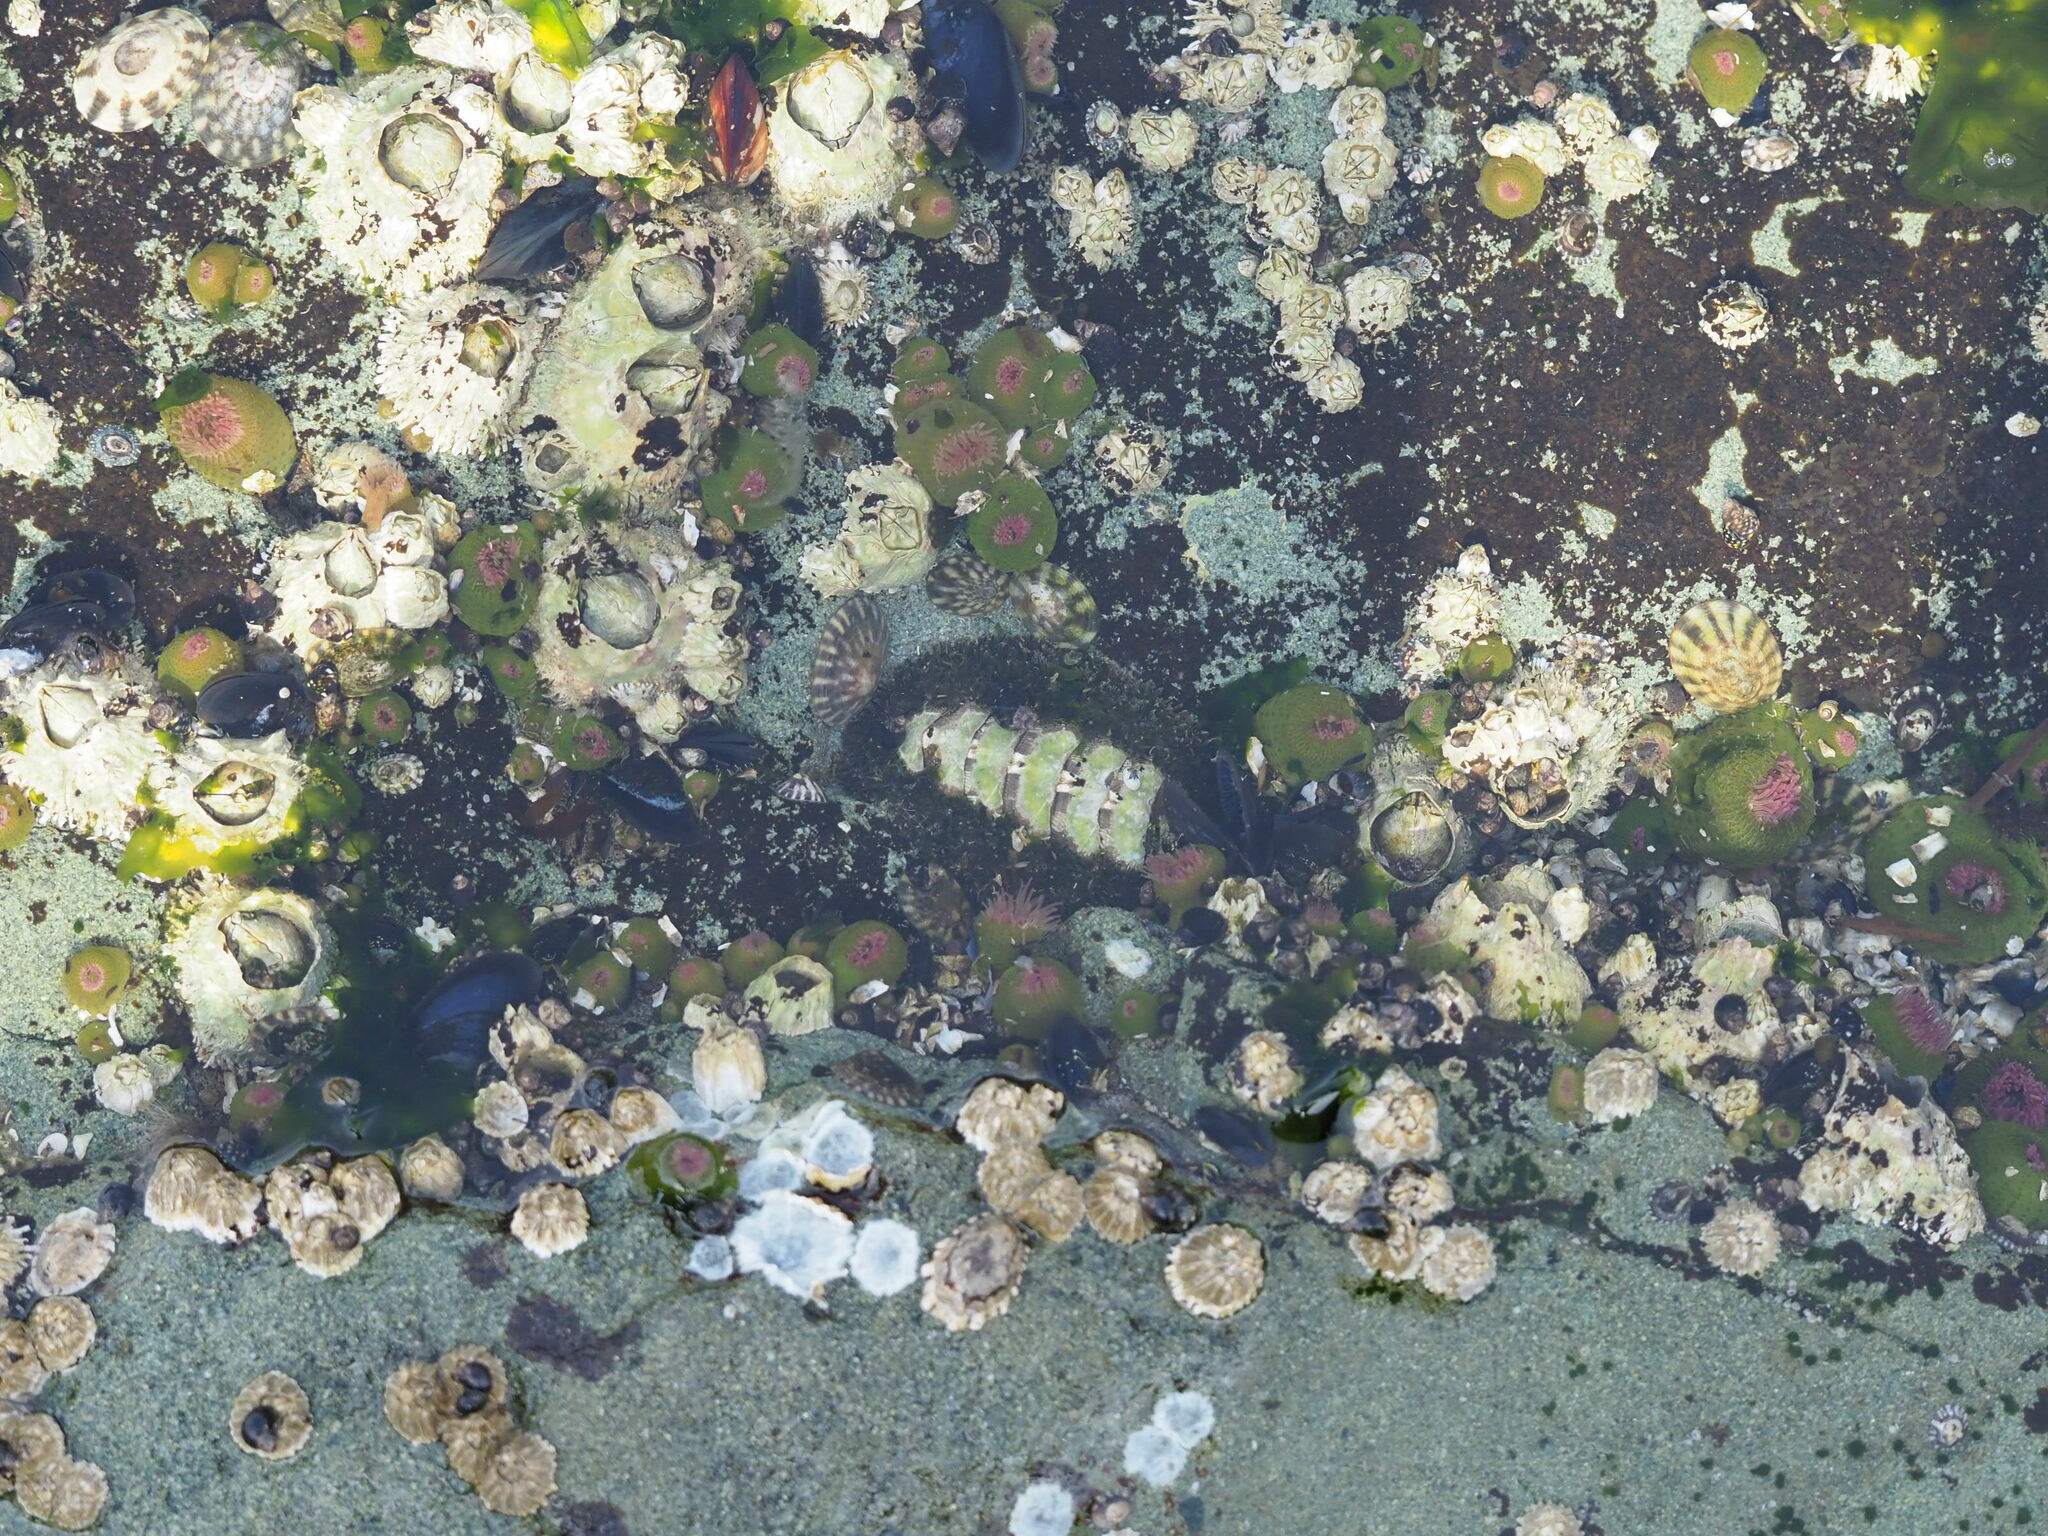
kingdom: Animalia
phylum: Mollusca
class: Polyplacophora
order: Chitonida
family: Mopaliidae
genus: Mopalia
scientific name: Mopalia muscosa
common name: Mossy chiton
